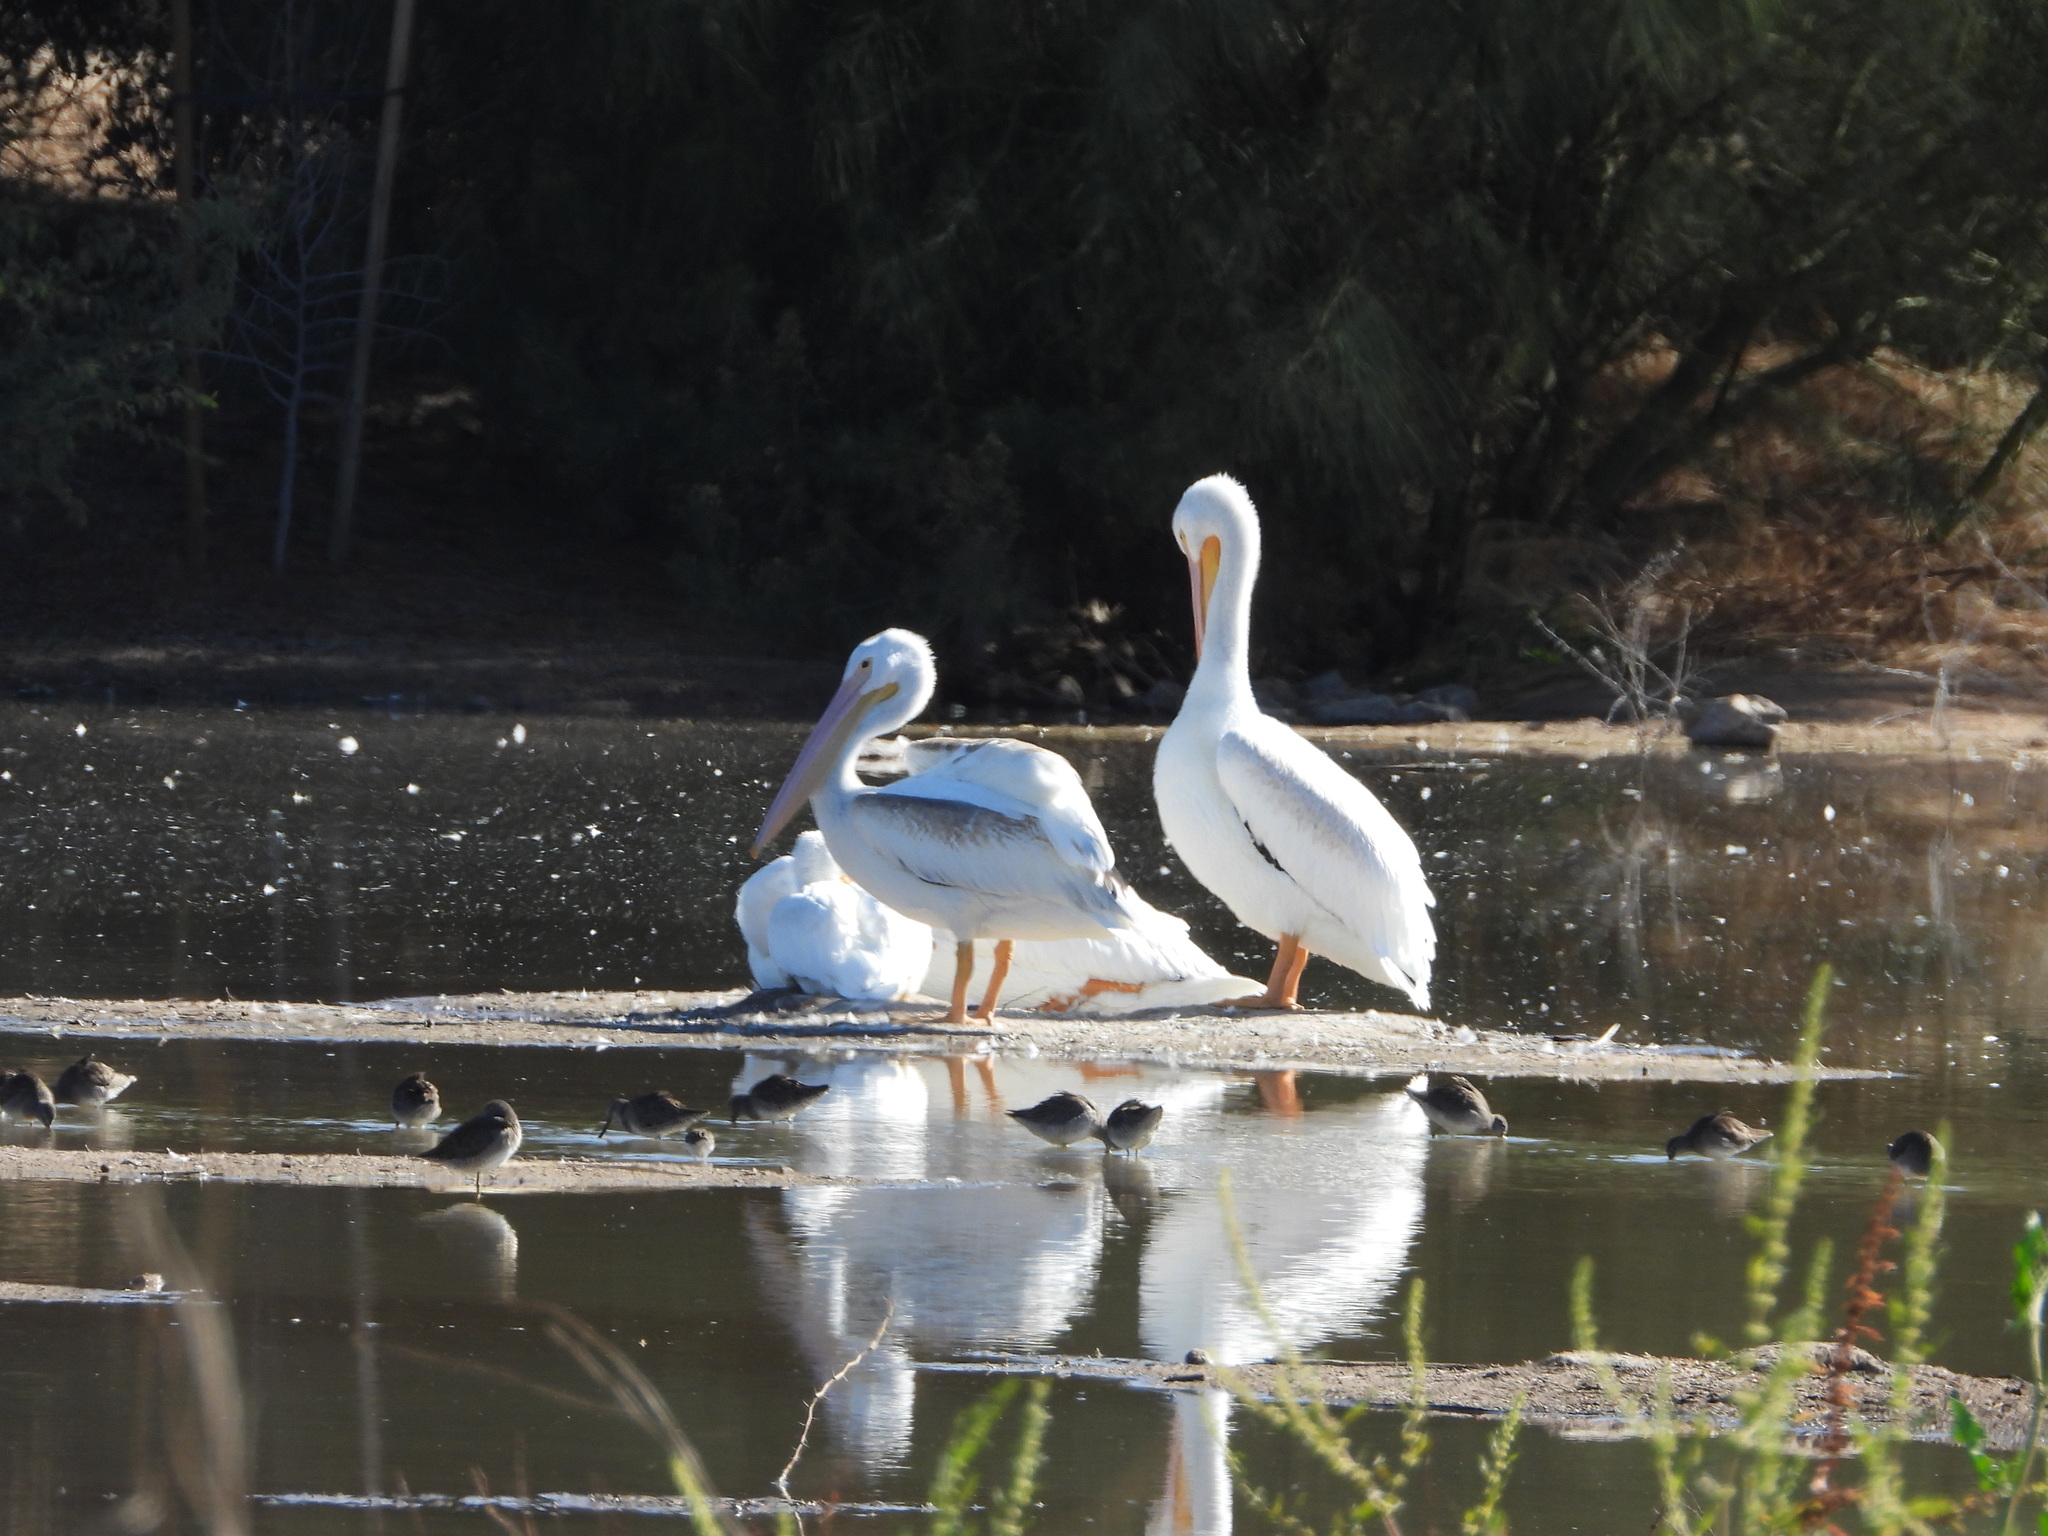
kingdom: Animalia
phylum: Chordata
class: Aves
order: Pelecaniformes
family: Pelecanidae
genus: Pelecanus
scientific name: Pelecanus erythrorhynchos
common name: American white pelican
